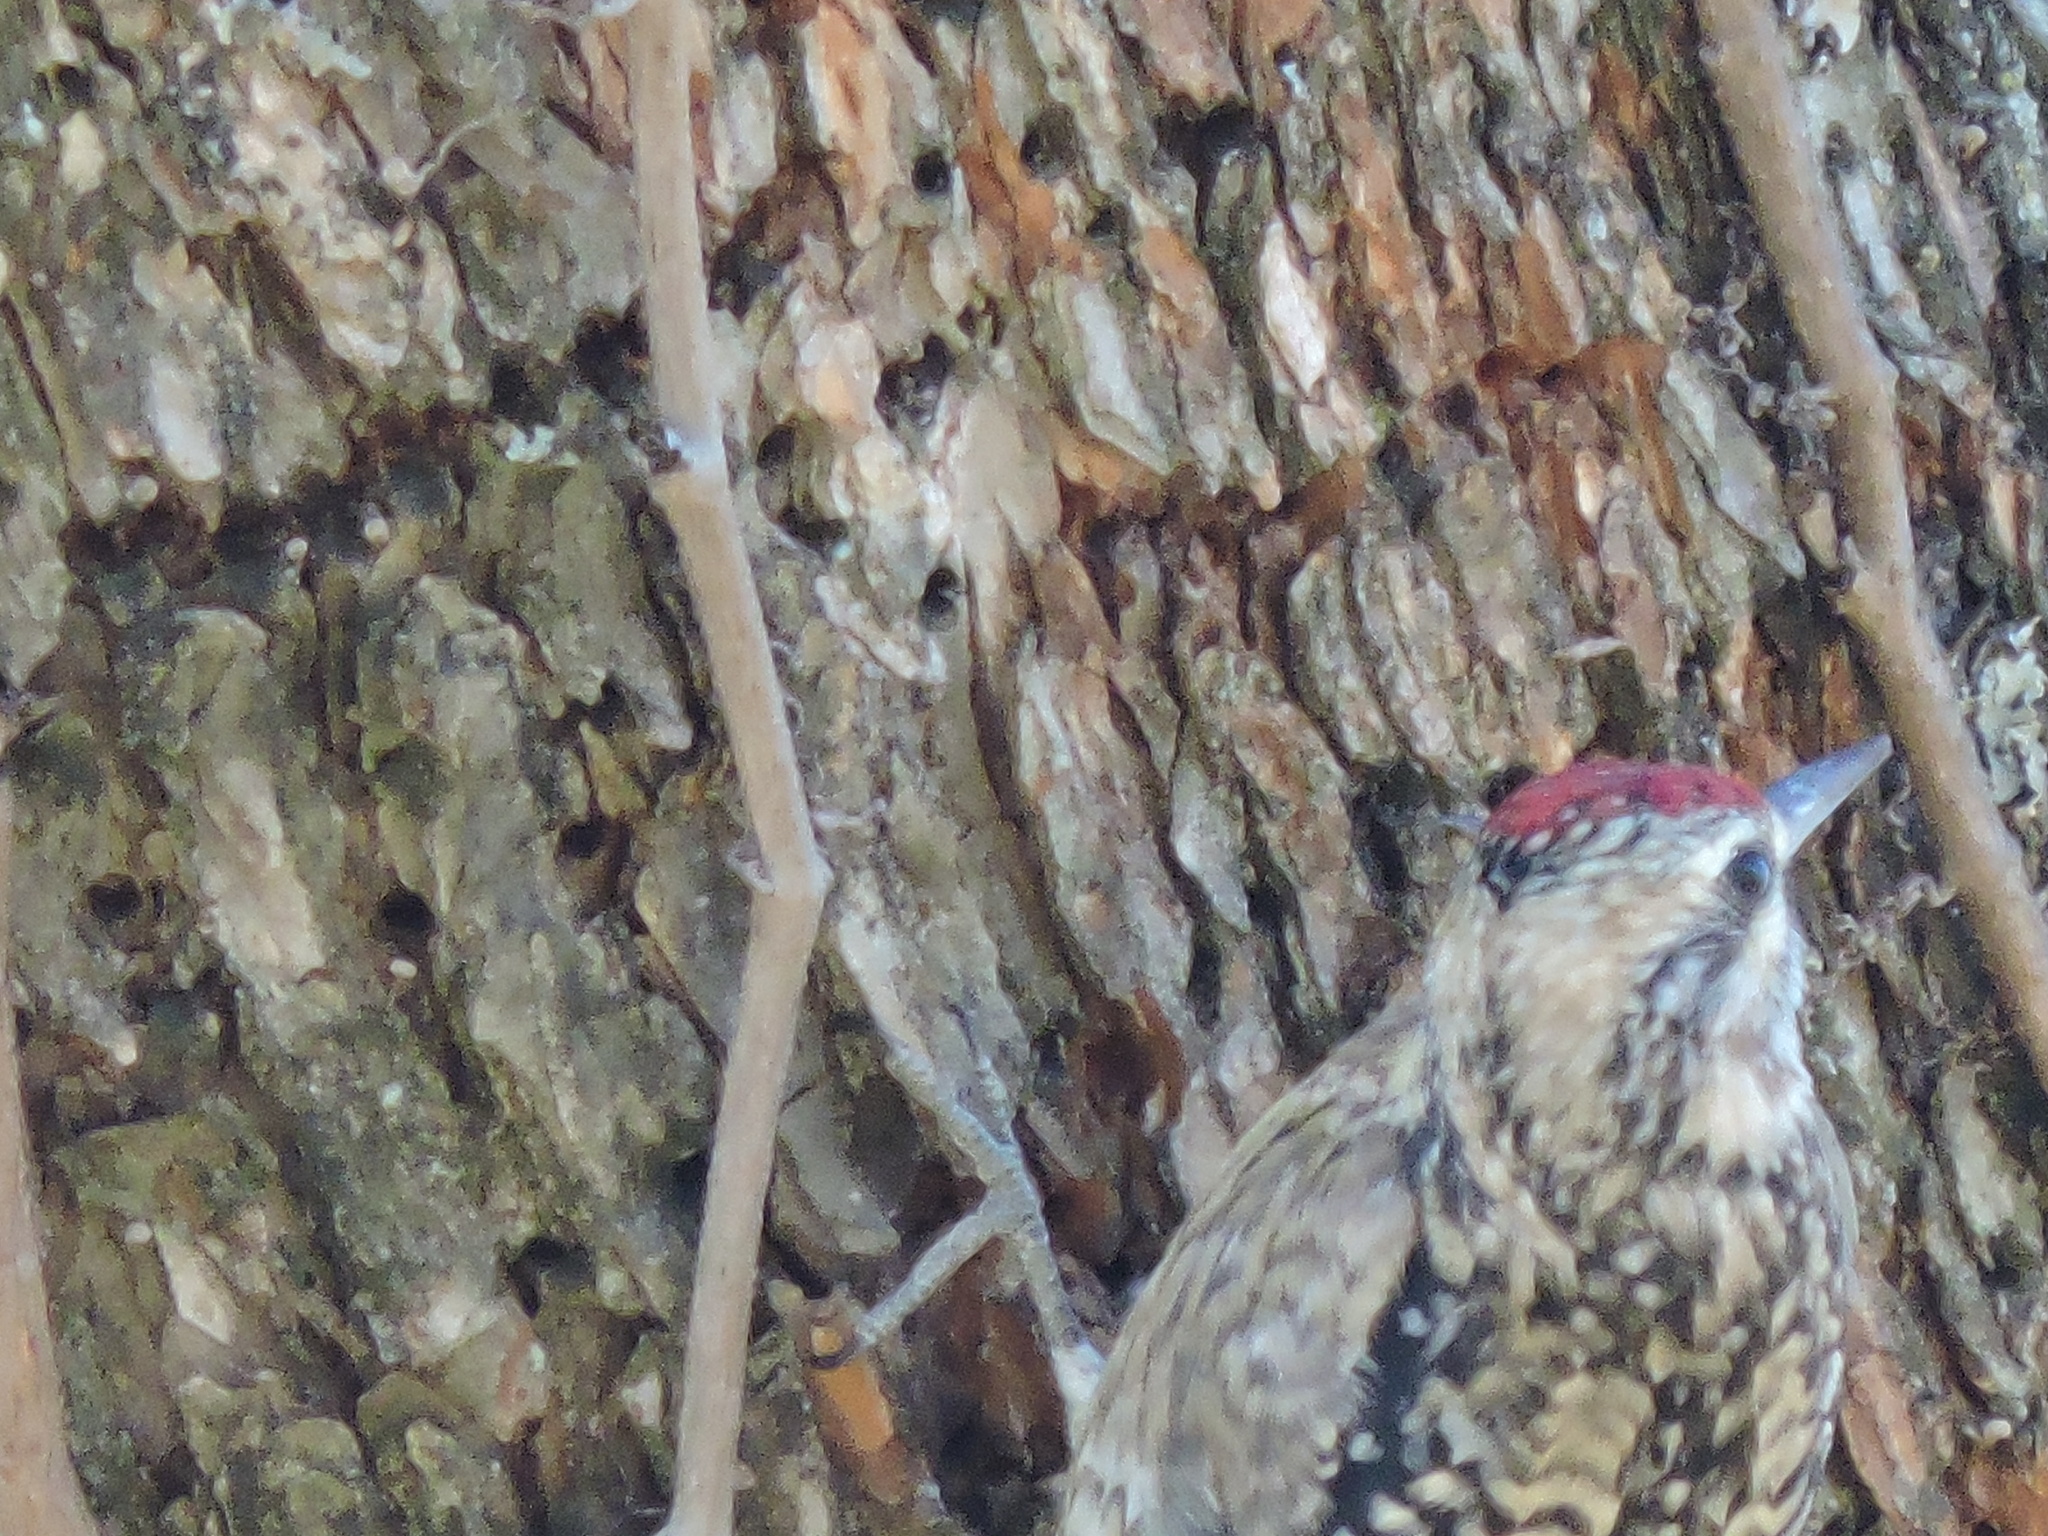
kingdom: Animalia
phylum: Chordata
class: Aves
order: Piciformes
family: Picidae
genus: Sphyrapicus
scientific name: Sphyrapicus varius
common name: Yellow-bellied sapsucker
